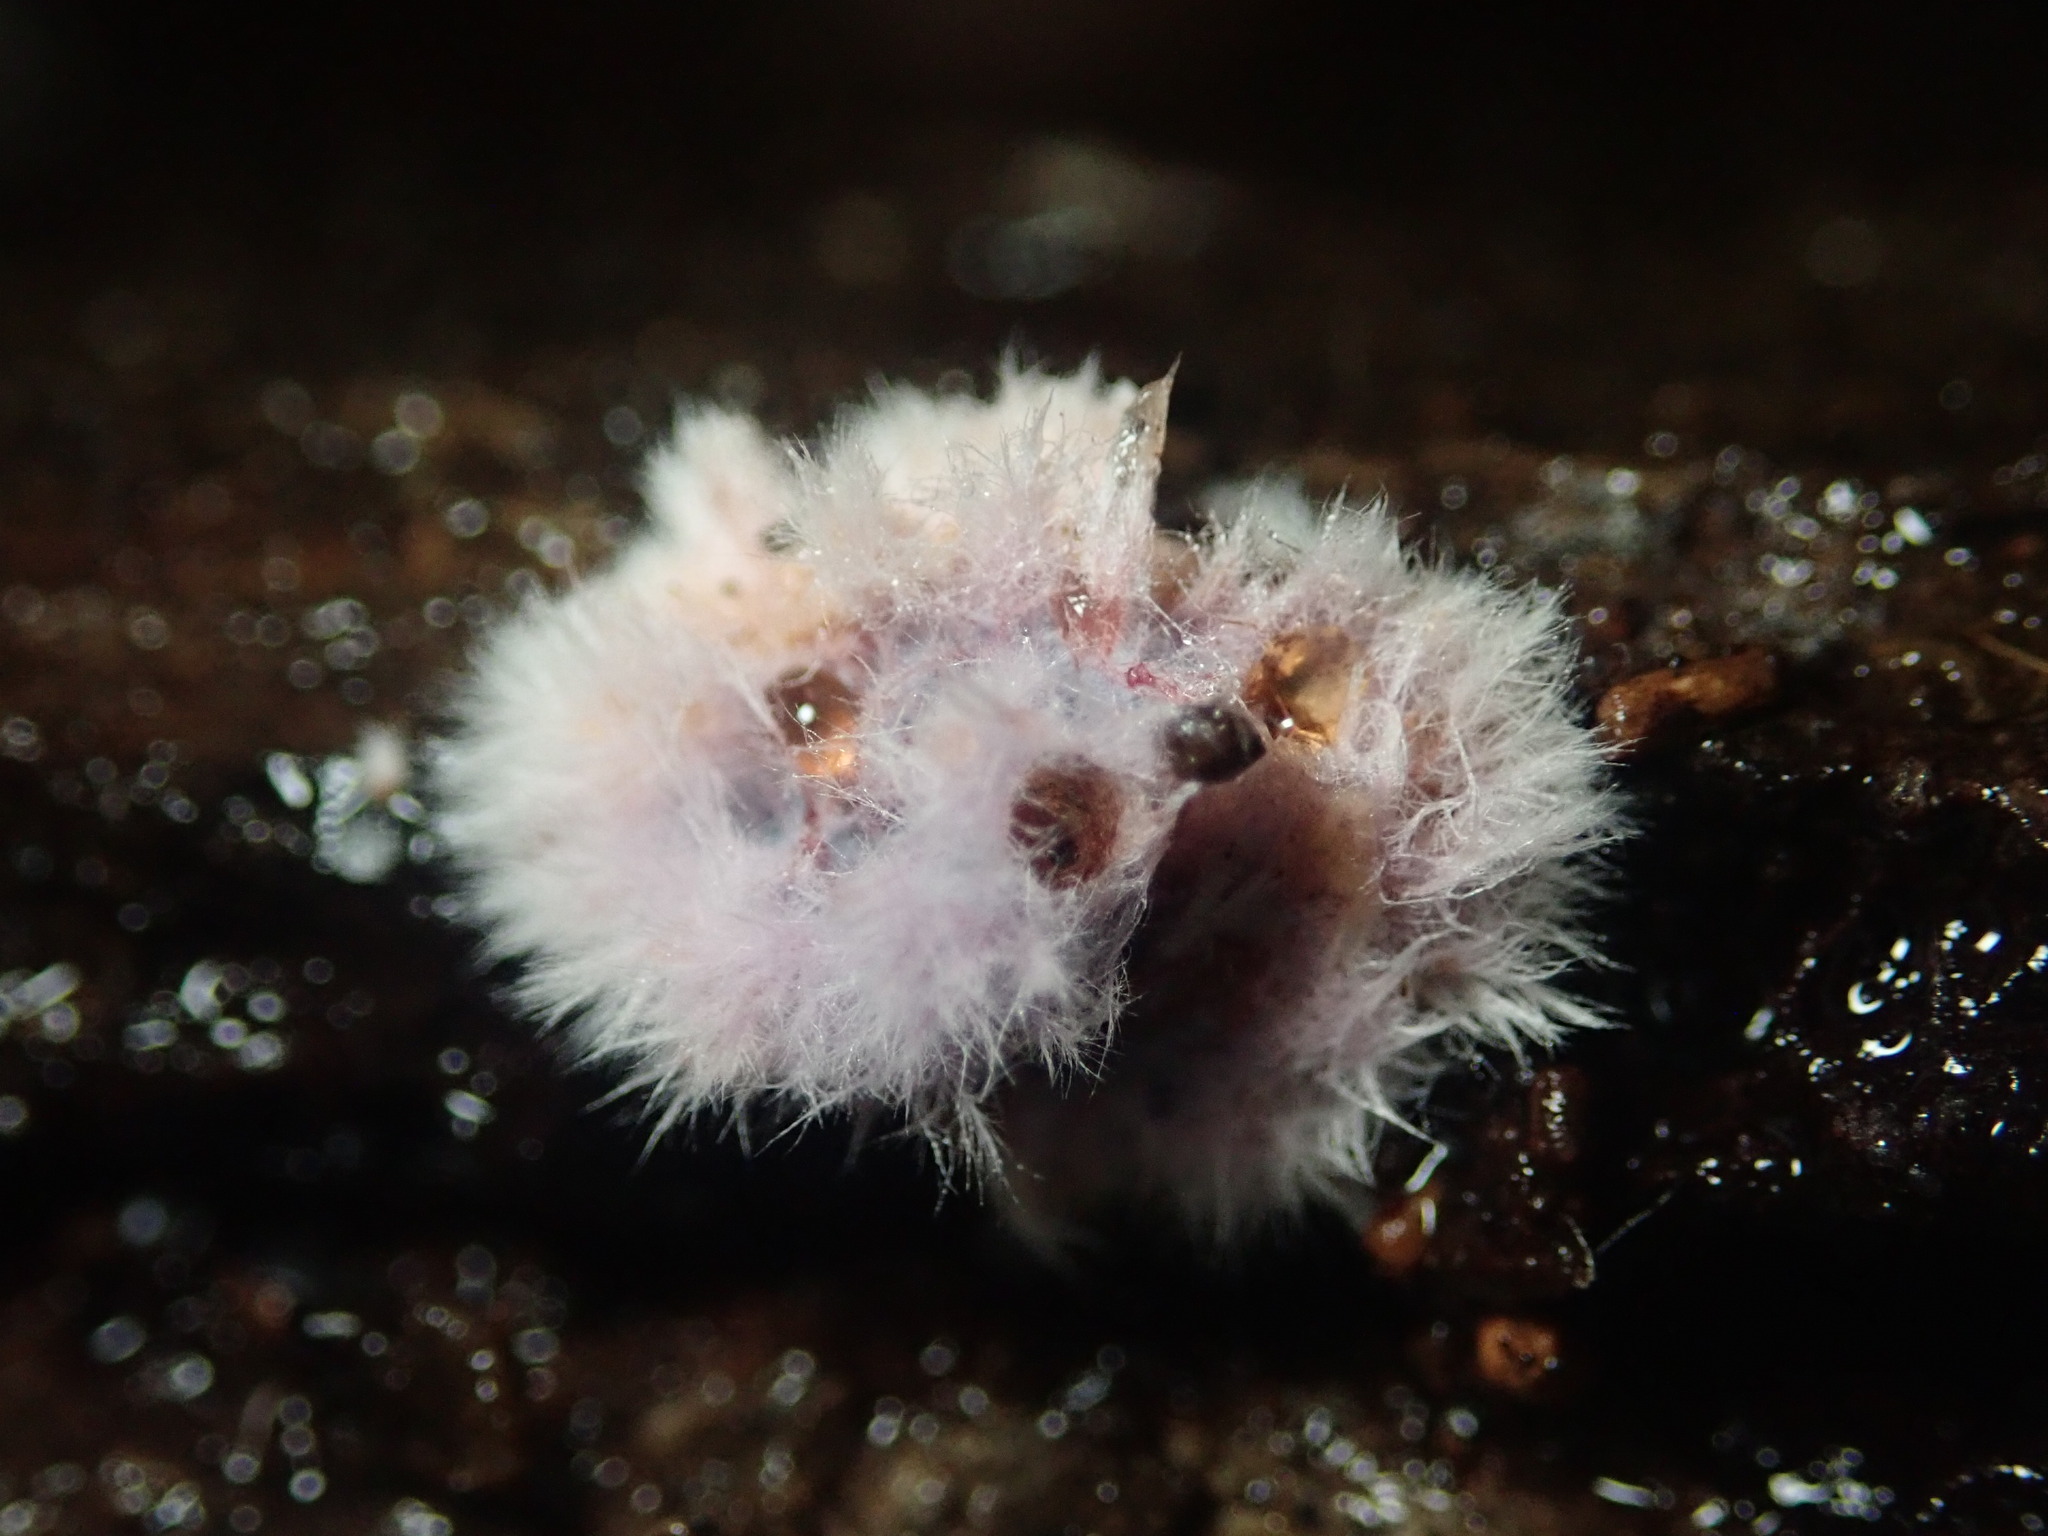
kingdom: Fungi
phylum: Basidiomycota
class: Agaricomycetes
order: Corticiales
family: Punctulariaceae
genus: Punctularia
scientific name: Punctularia atropurpurascens
